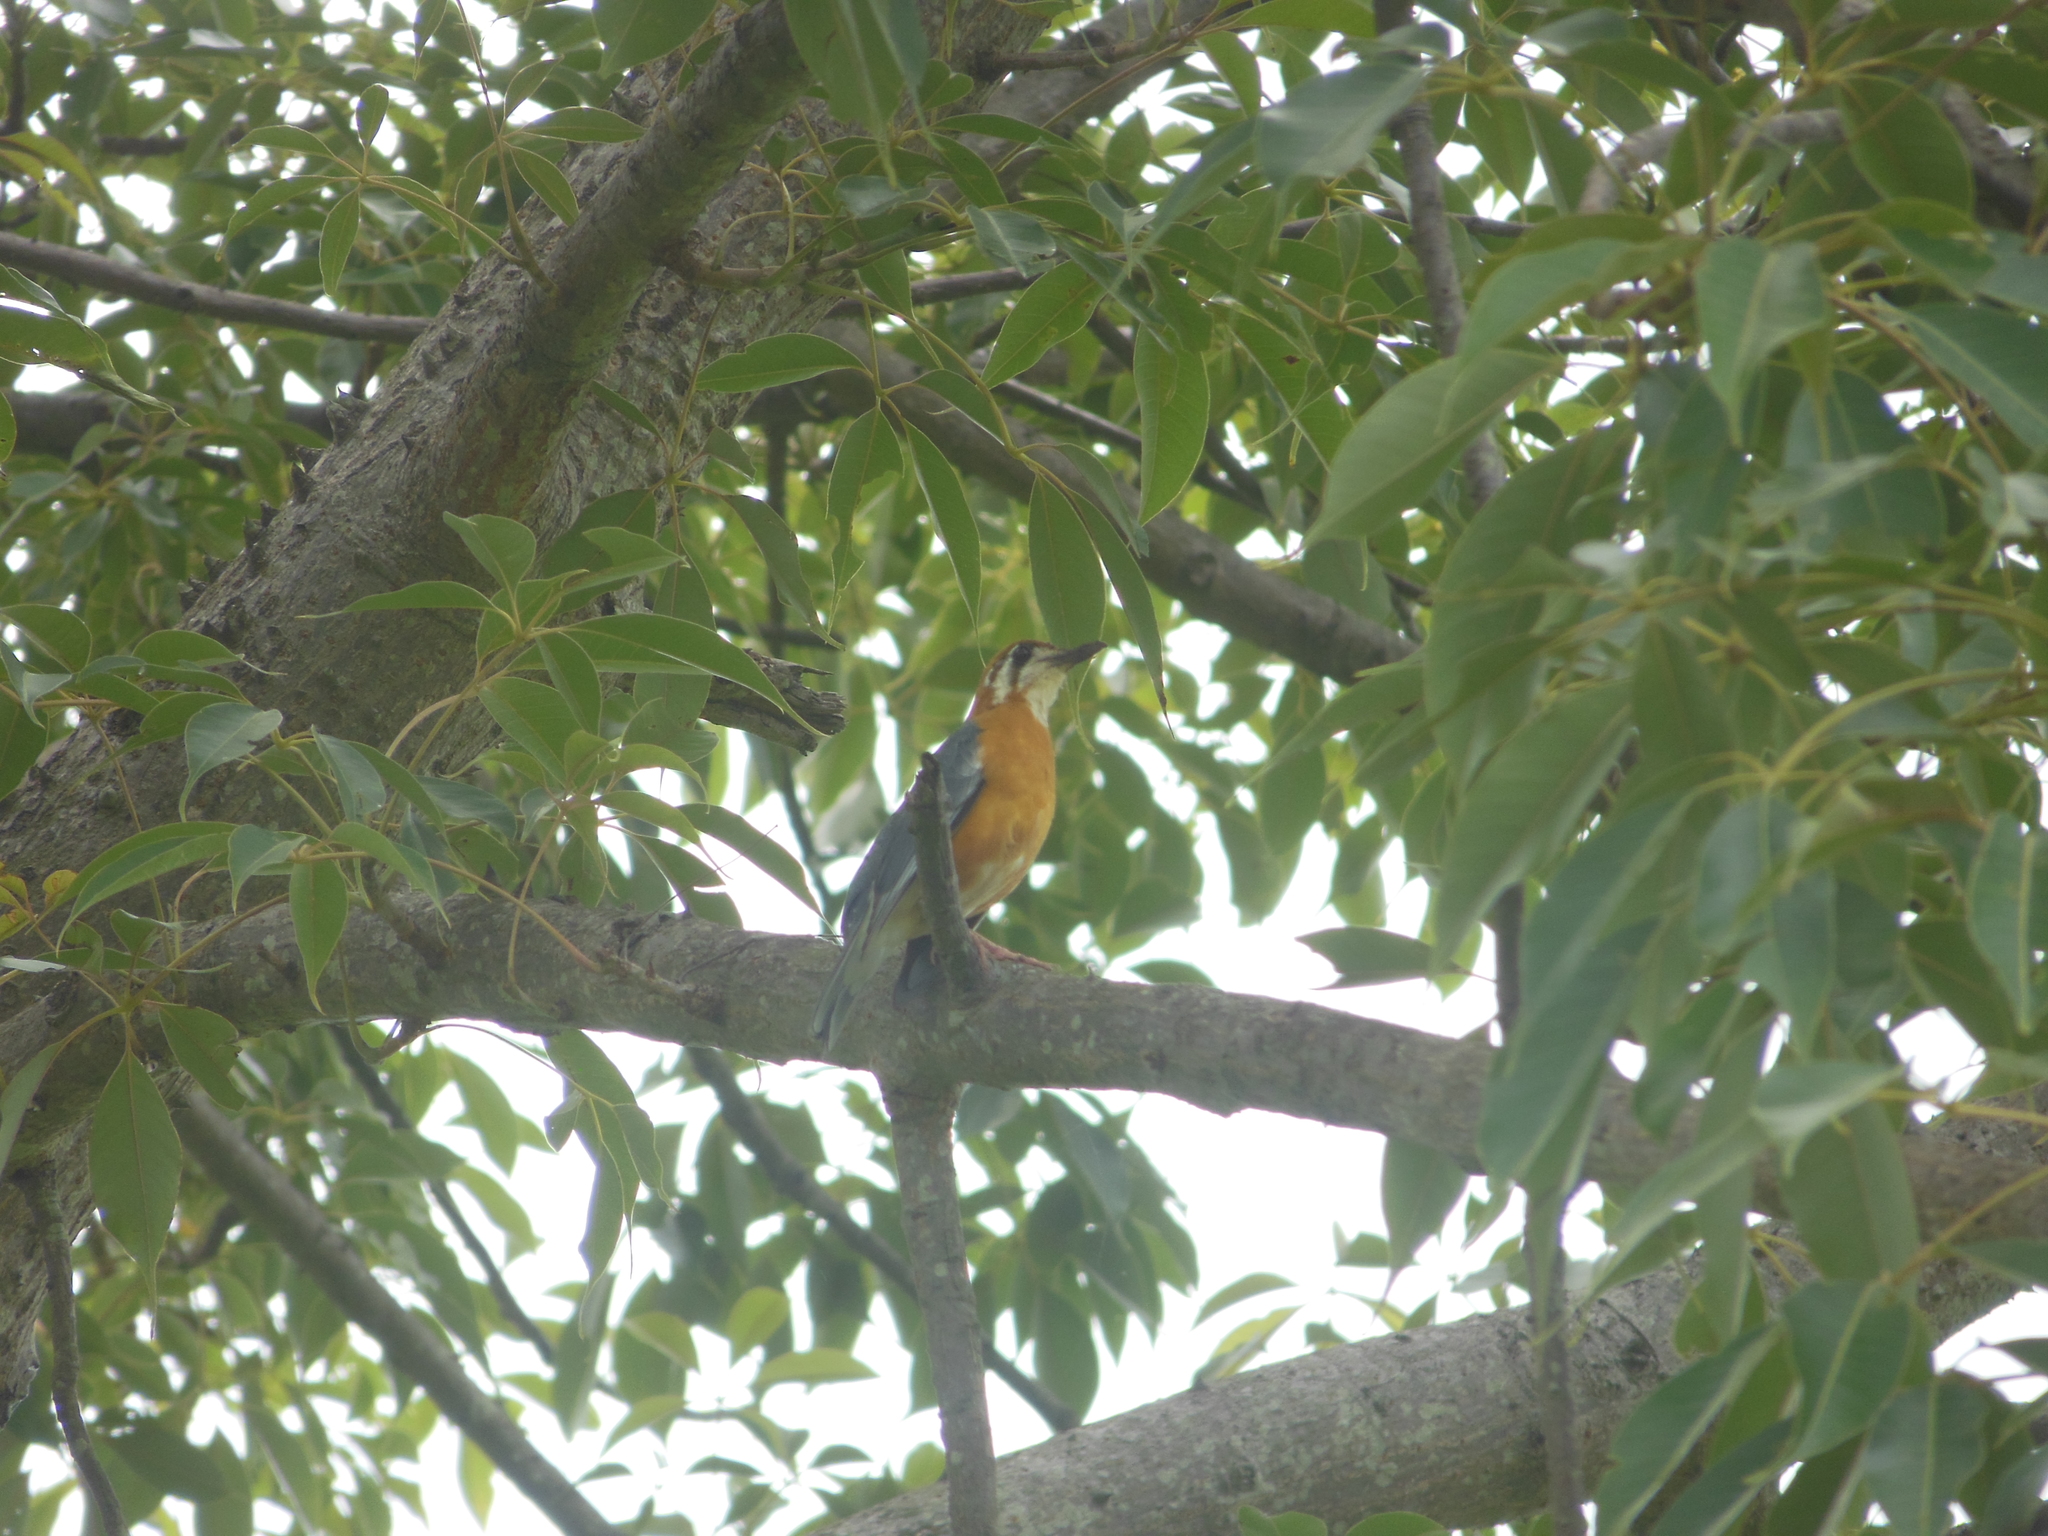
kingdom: Animalia
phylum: Chordata
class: Aves
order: Passeriformes
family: Turdidae
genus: Geokichla
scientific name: Geokichla citrina
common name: Orange-headed thrush
